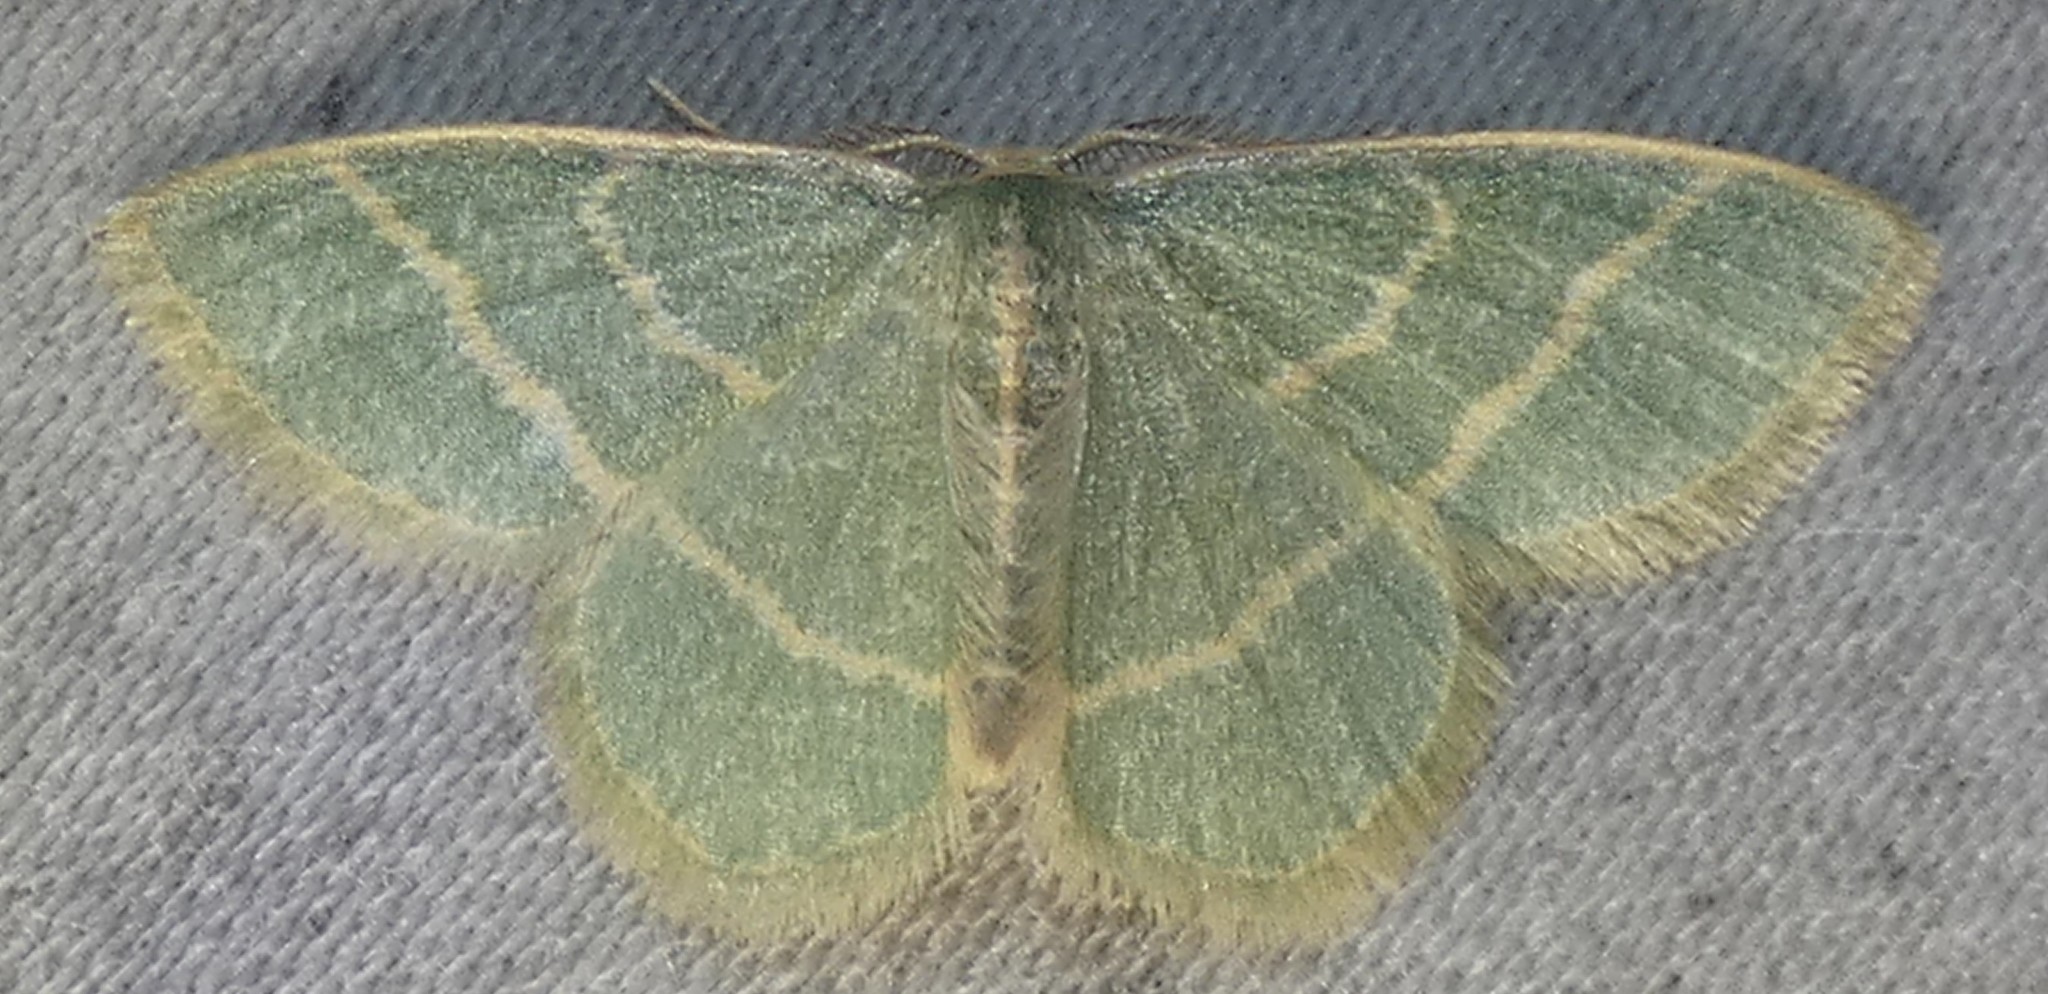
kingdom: Animalia
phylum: Arthropoda
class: Insecta
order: Lepidoptera
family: Geometridae
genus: Chlorochlamys
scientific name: Chlorochlamys chloroleucaria
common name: Blackberry looper
